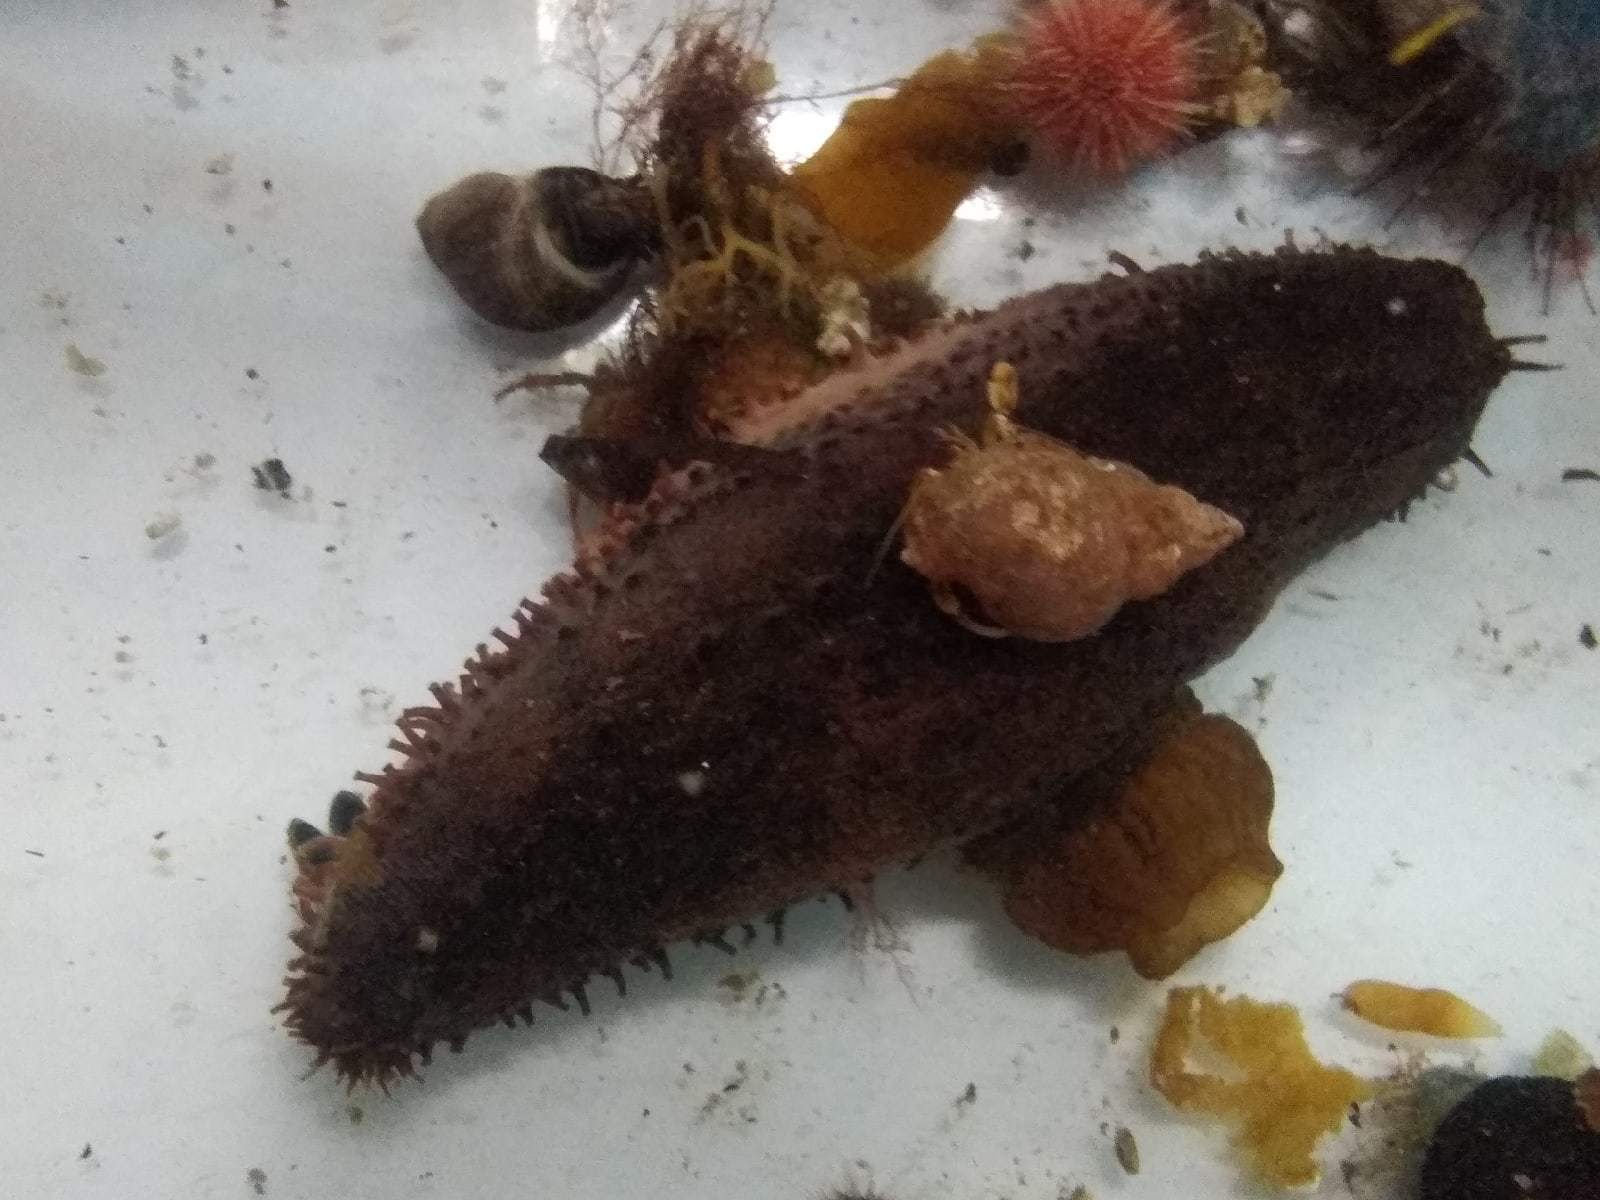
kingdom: Animalia
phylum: Echinodermata
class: Holothuroidea
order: Dendrochirotida
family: Cucumariidae
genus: Cucumaria
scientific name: Cucumaria frondosa
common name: Orange-footed sea cucumber
